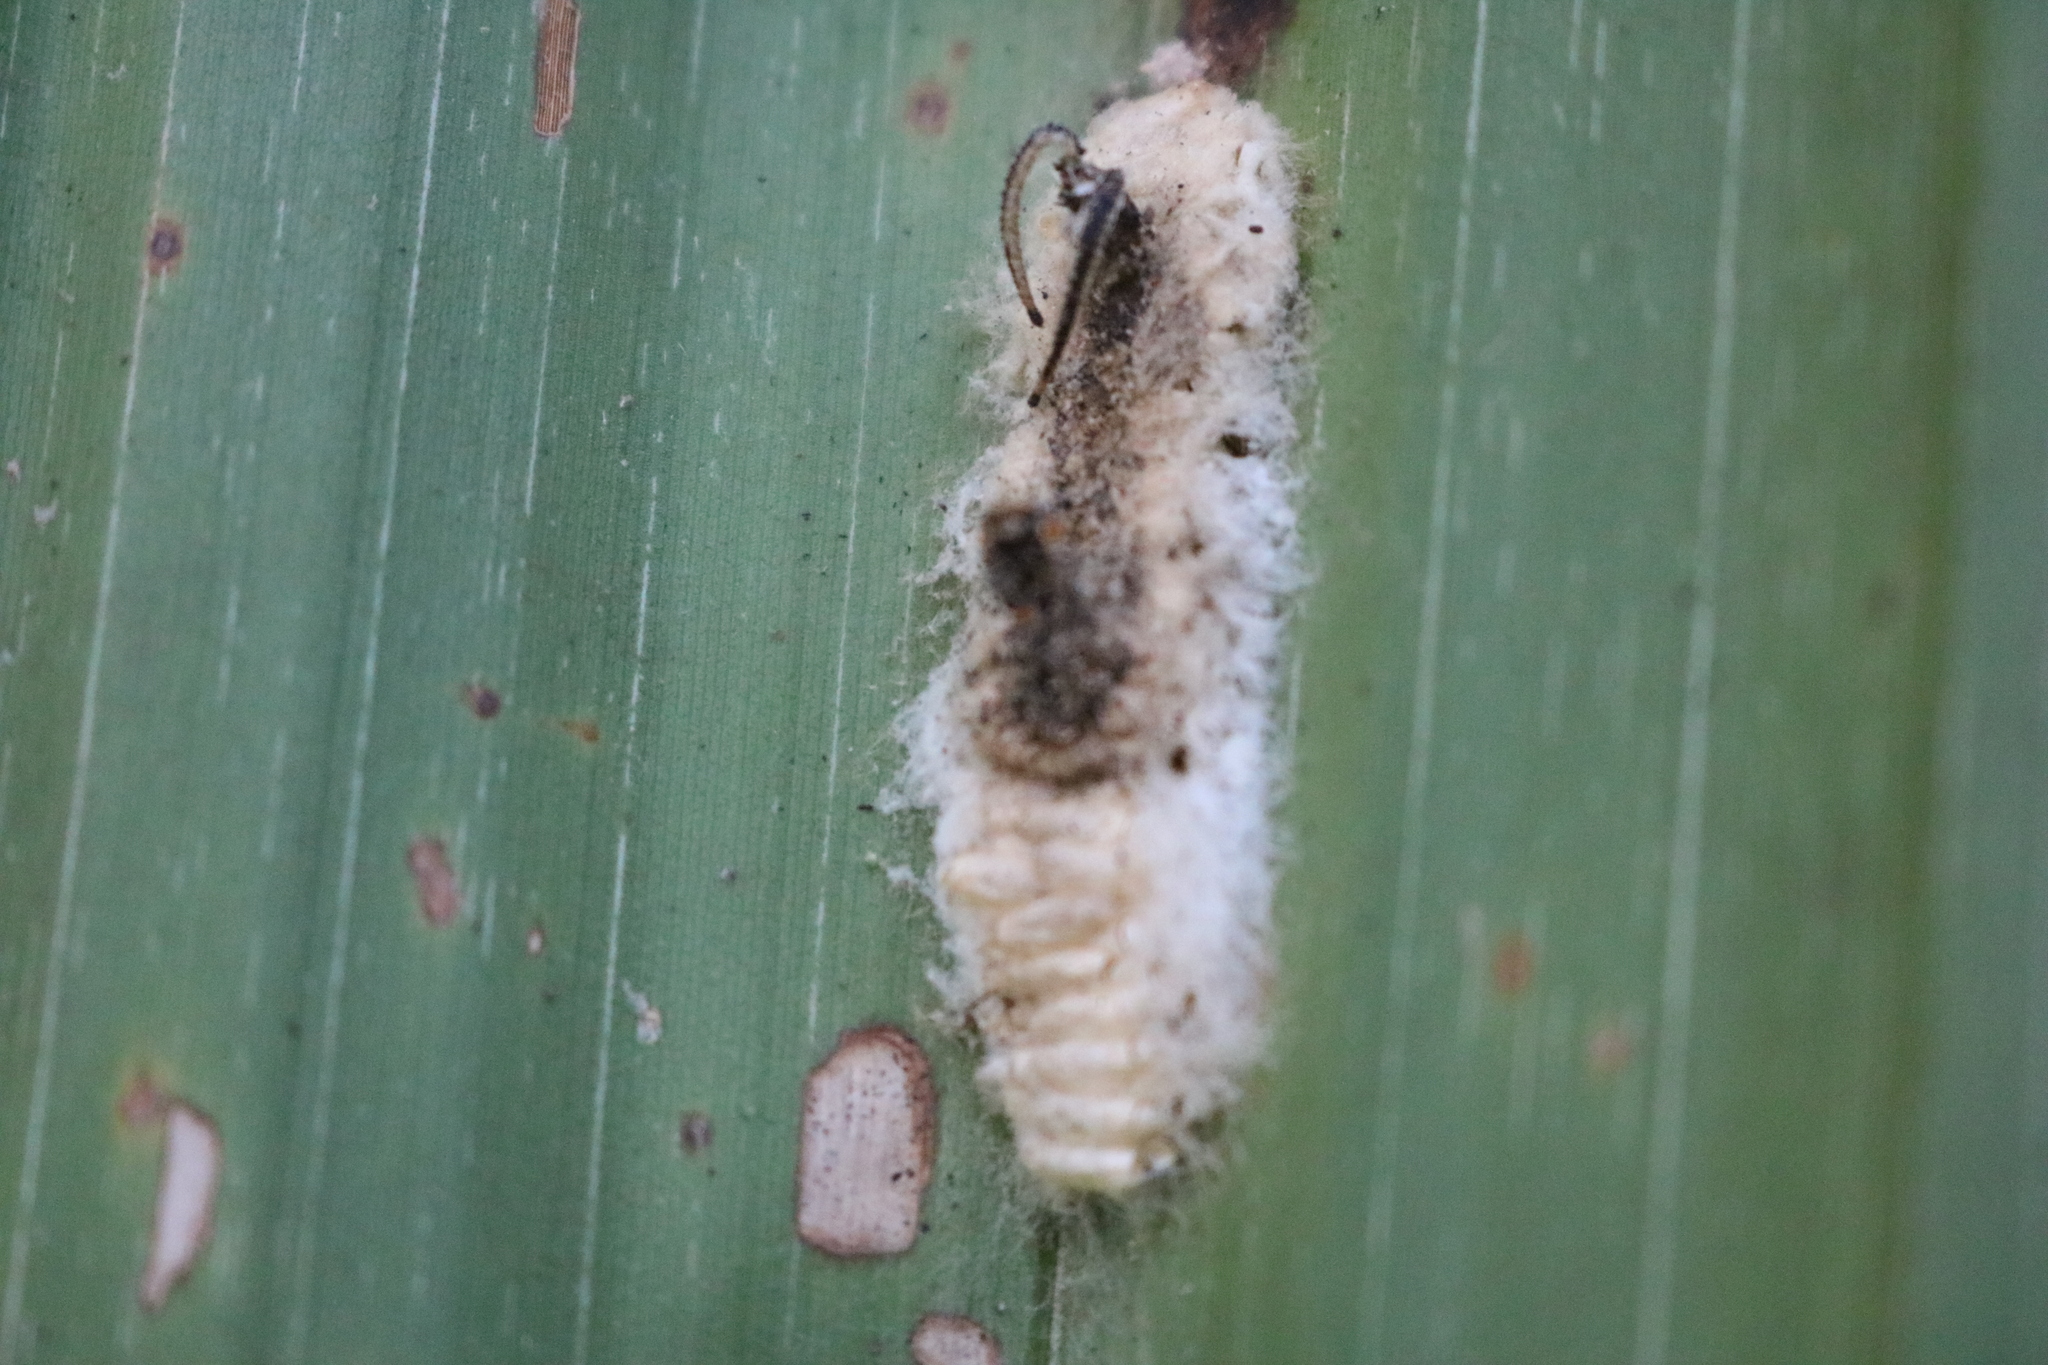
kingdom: Animalia
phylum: Arthropoda
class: Insecta
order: Lepidoptera
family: Nymphalidae
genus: Opsiphanes
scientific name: Opsiphanes cassina
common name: Split-banded owl-butterfly
